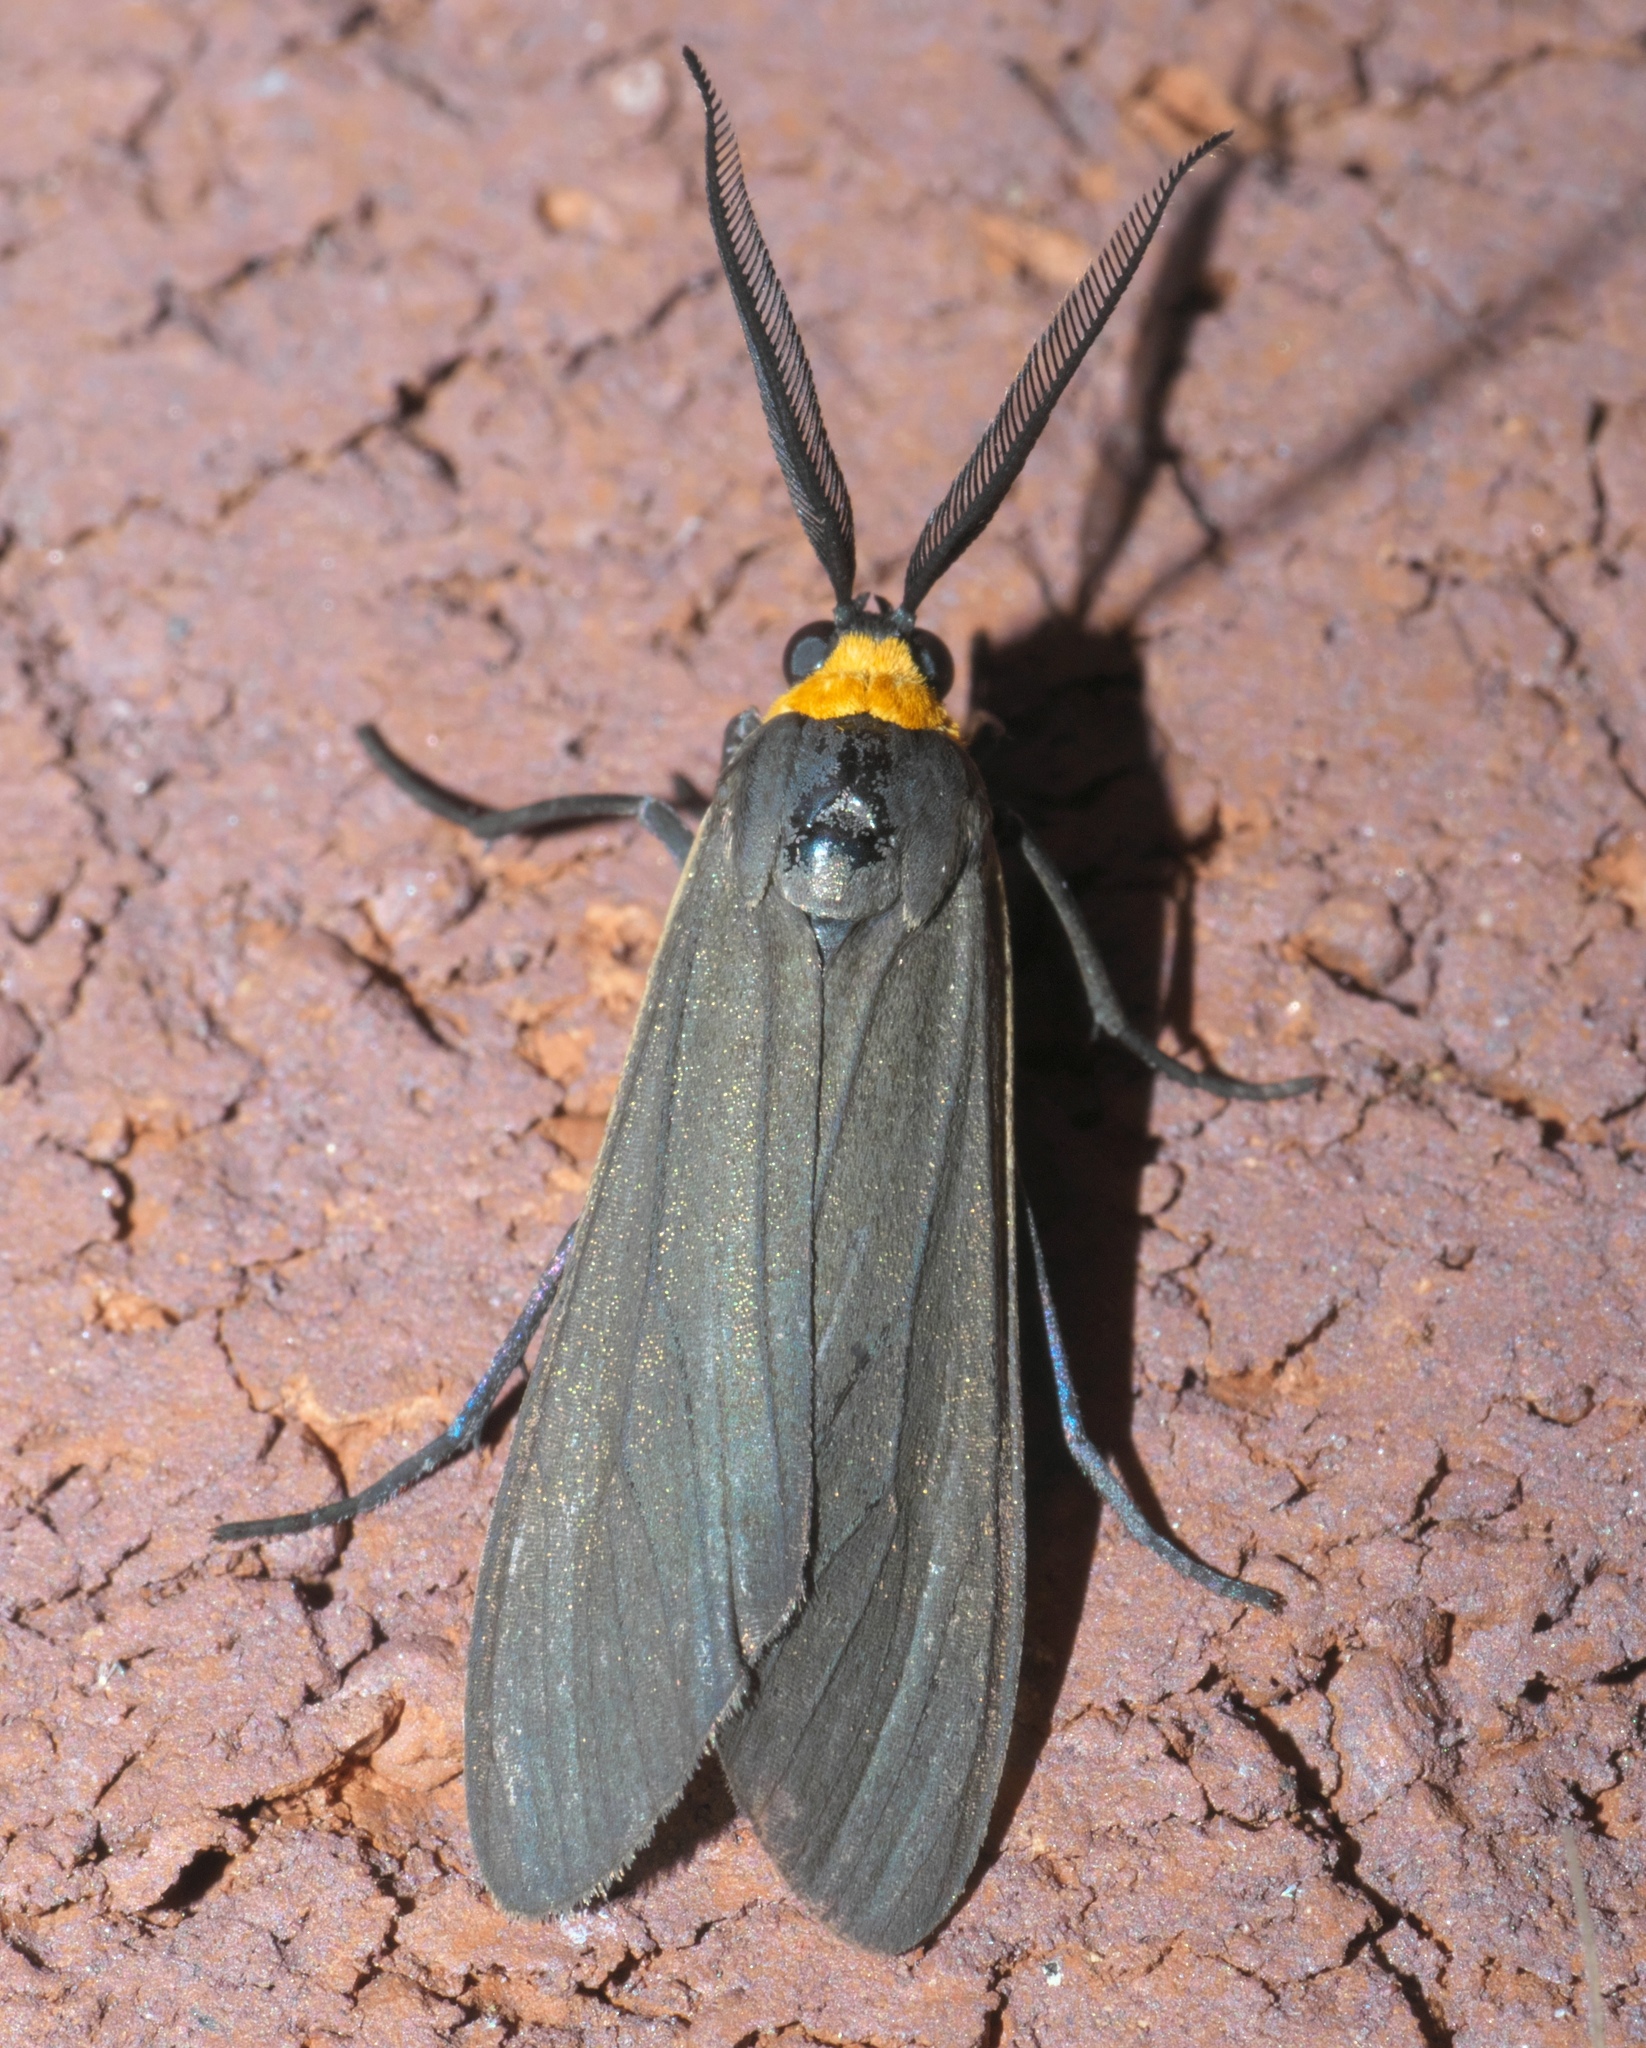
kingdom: Animalia
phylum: Arthropoda
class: Insecta
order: Lepidoptera
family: Erebidae
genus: Cisseps
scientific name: Cisseps fulvicollis
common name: Yellow-collared scape moth
